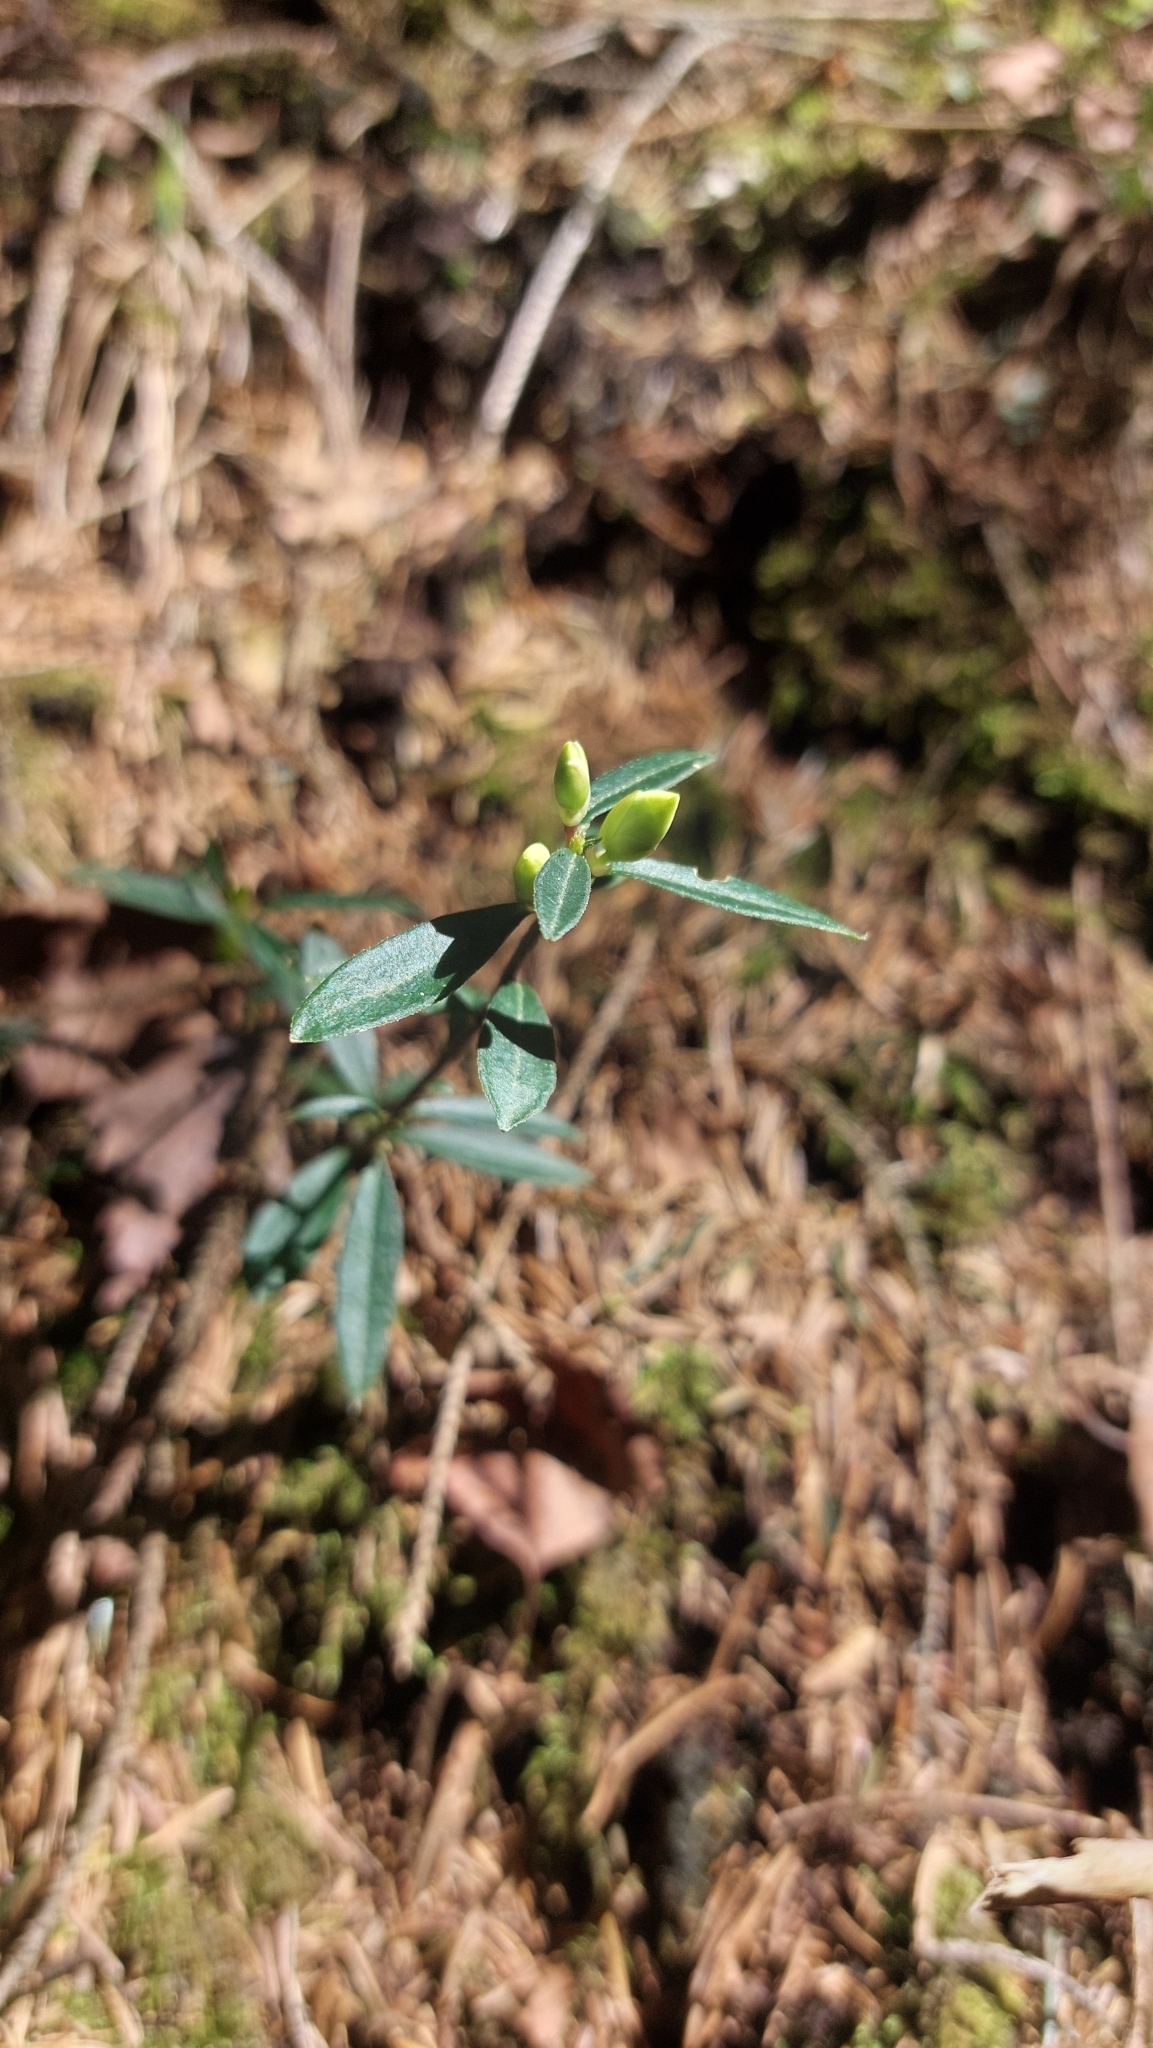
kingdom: Plantae
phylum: Tracheophyta
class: Magnoliopsida
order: Fabales
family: Polygalaceae
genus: Polygaloides
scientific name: Polygaloides chamaebuxus
